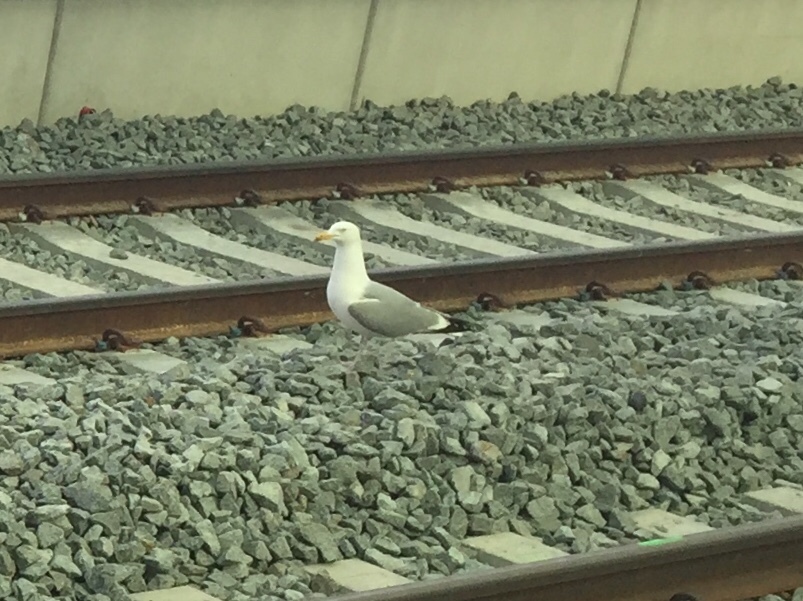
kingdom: Animalia
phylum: Chordata
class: Aves
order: Charadriiformes
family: Laridae
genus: Larus
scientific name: Larus argentatus
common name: Herring gull
